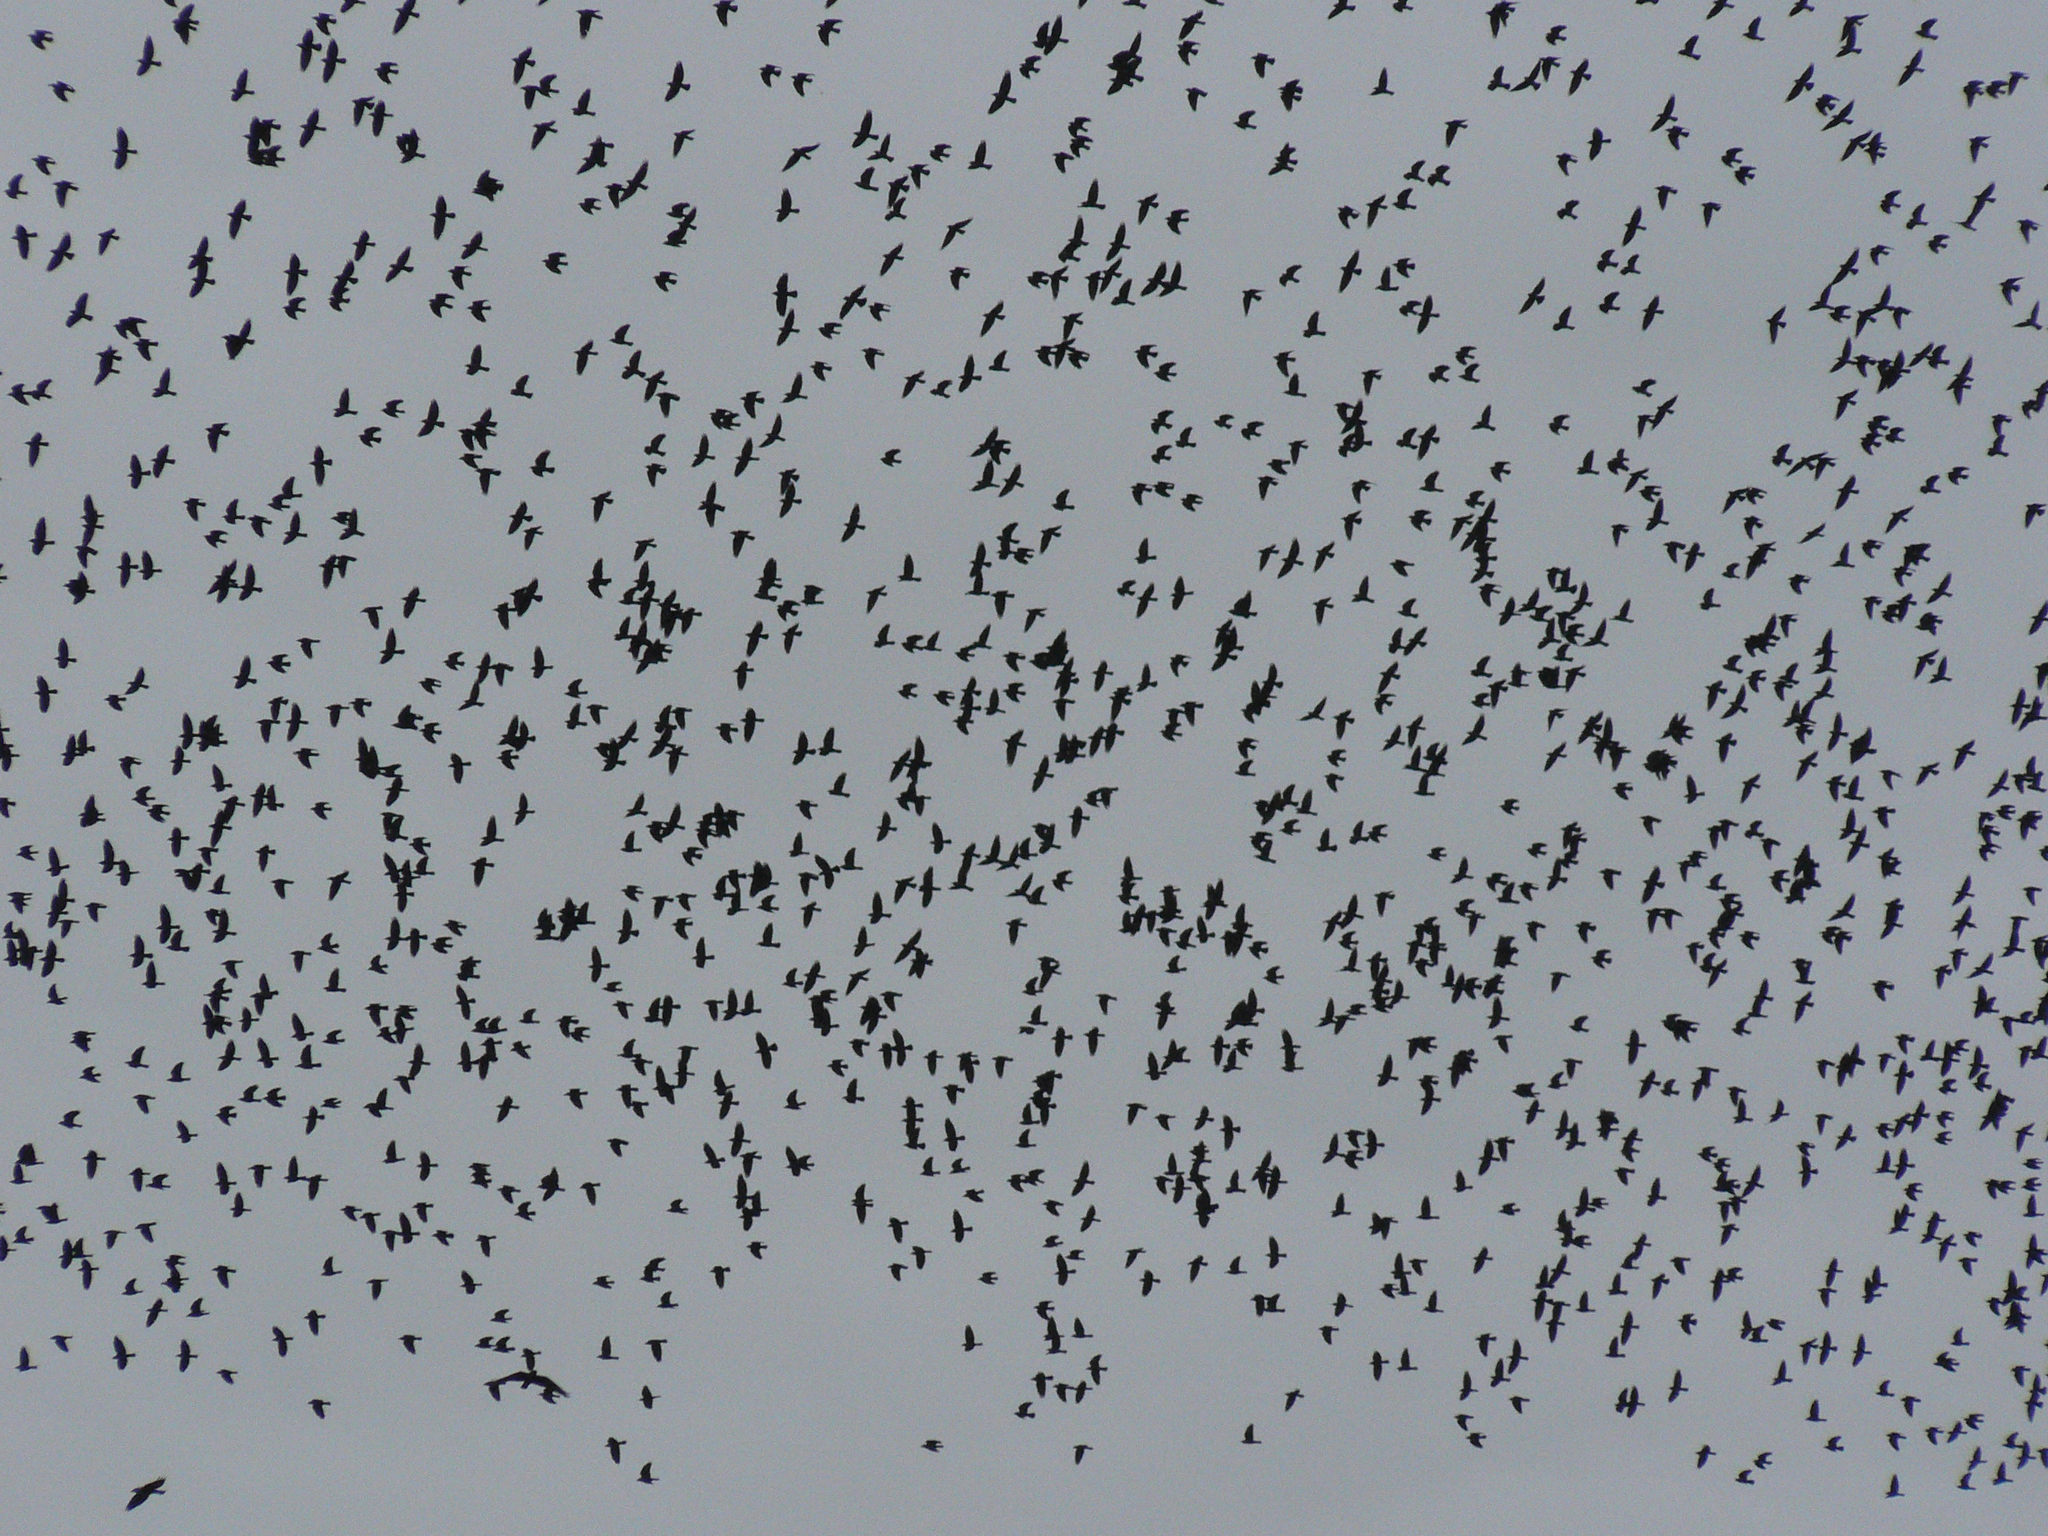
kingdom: Animalia
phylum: Chordata
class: Aves
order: Passeriformes
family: Corvidae
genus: Coloeus
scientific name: Coloeus monedula
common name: Western jackdaw
